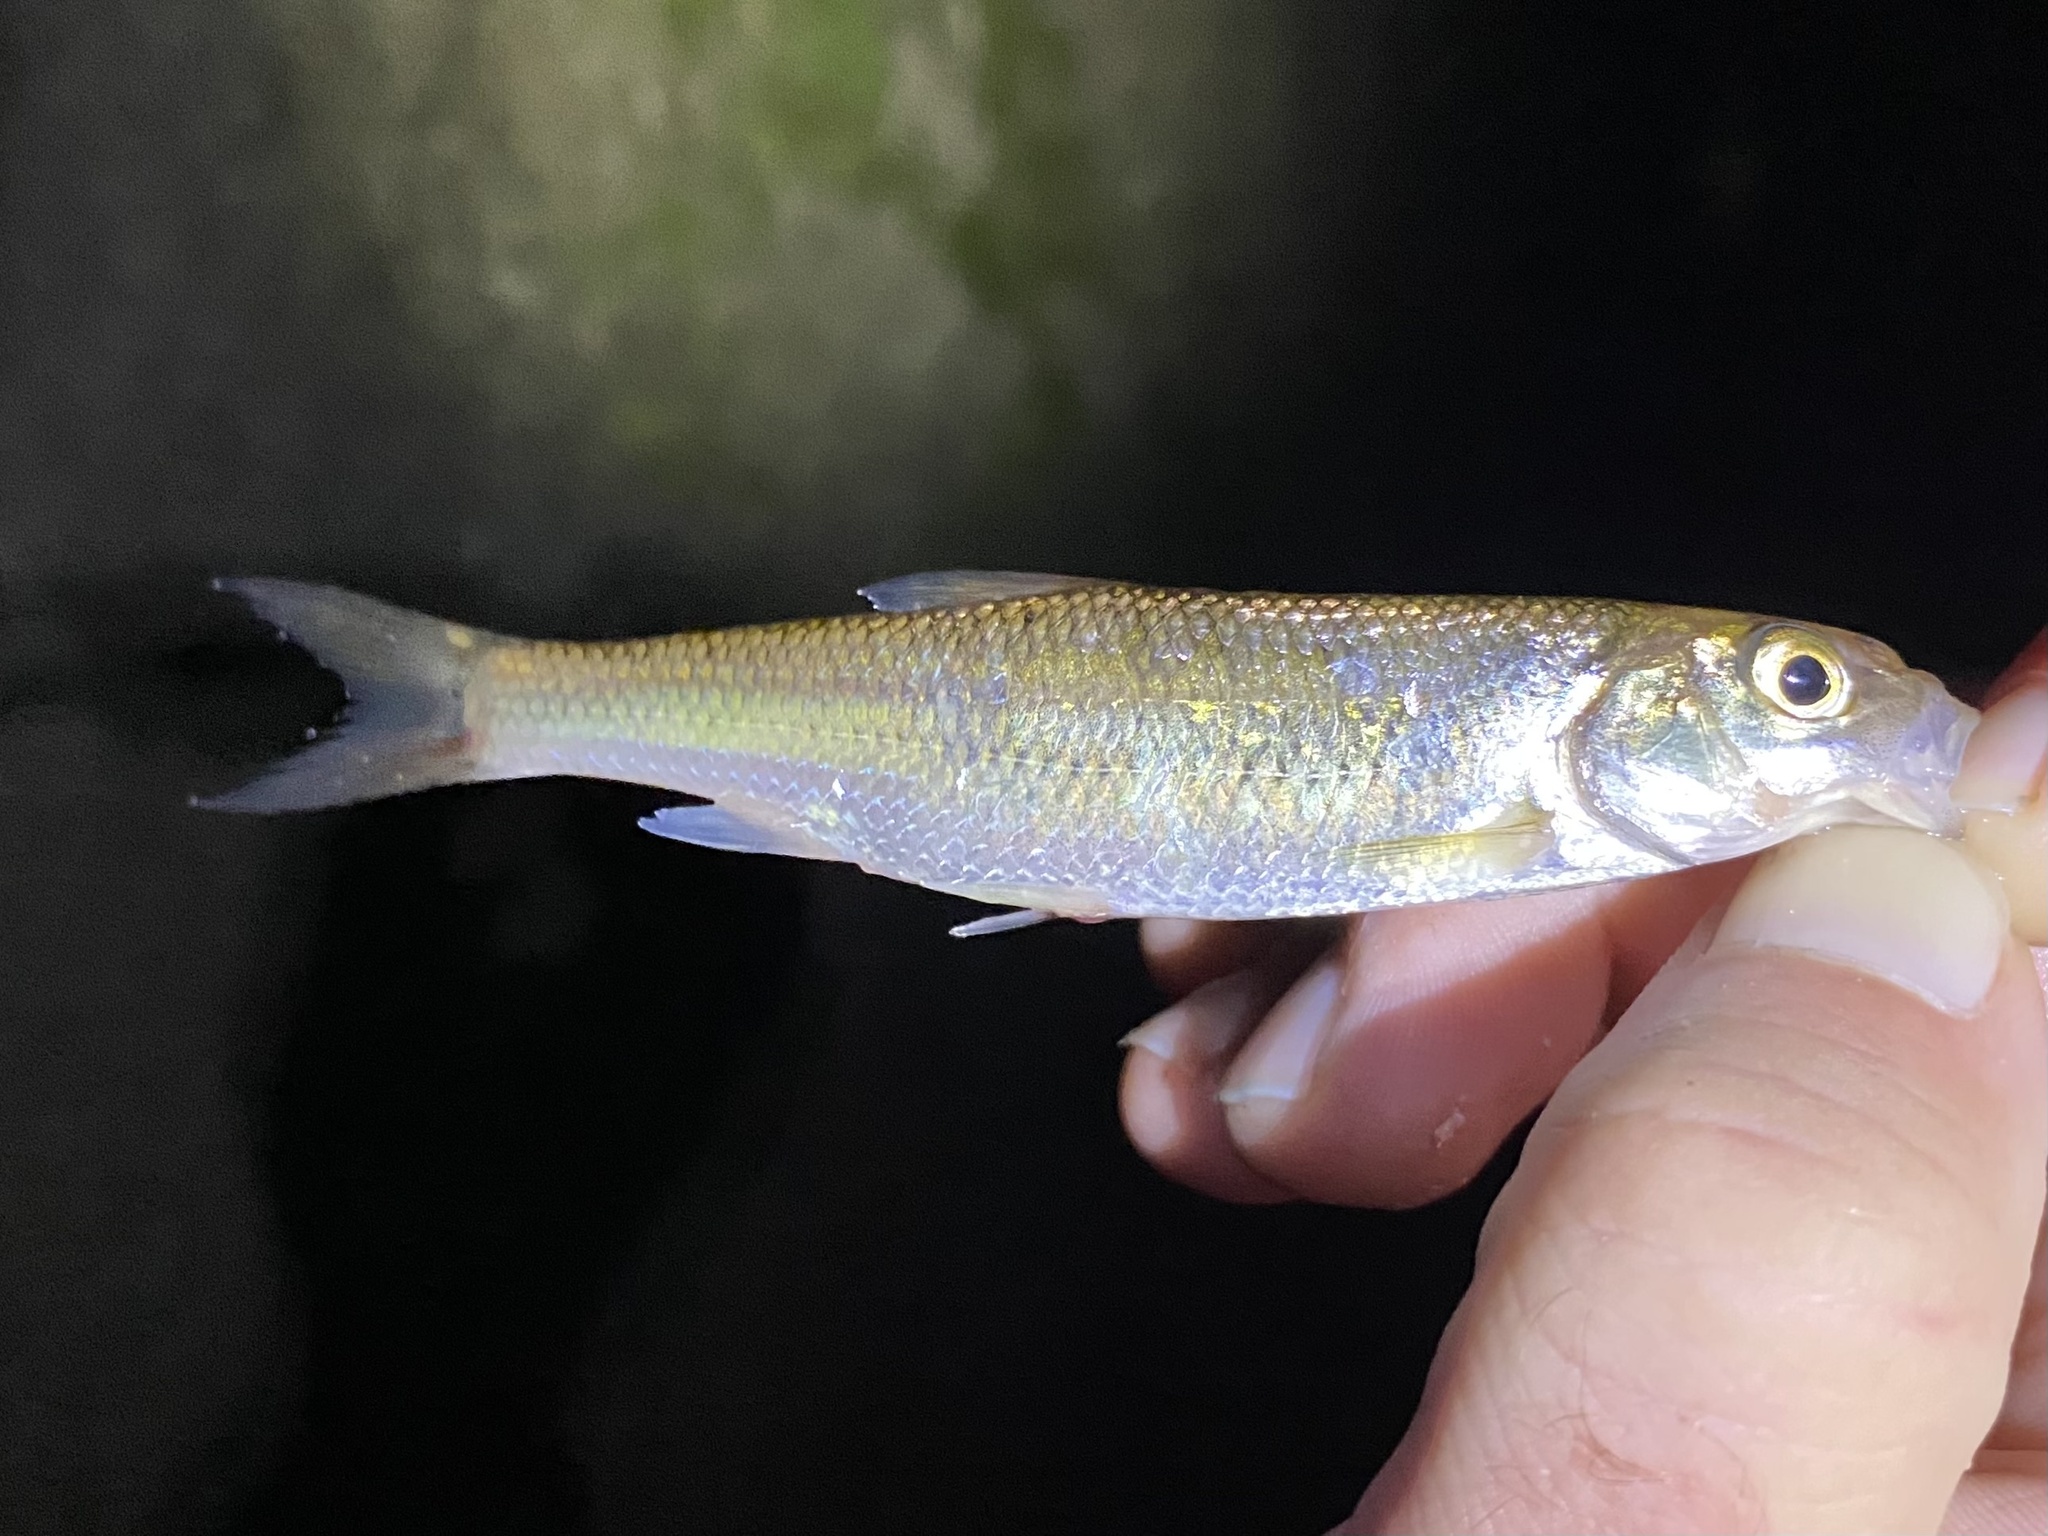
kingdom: Animalia
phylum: Chordata
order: Cypriniformes
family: Cyprinidae
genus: Semotilus
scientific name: Semotilus corporalis
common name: Fallfish
